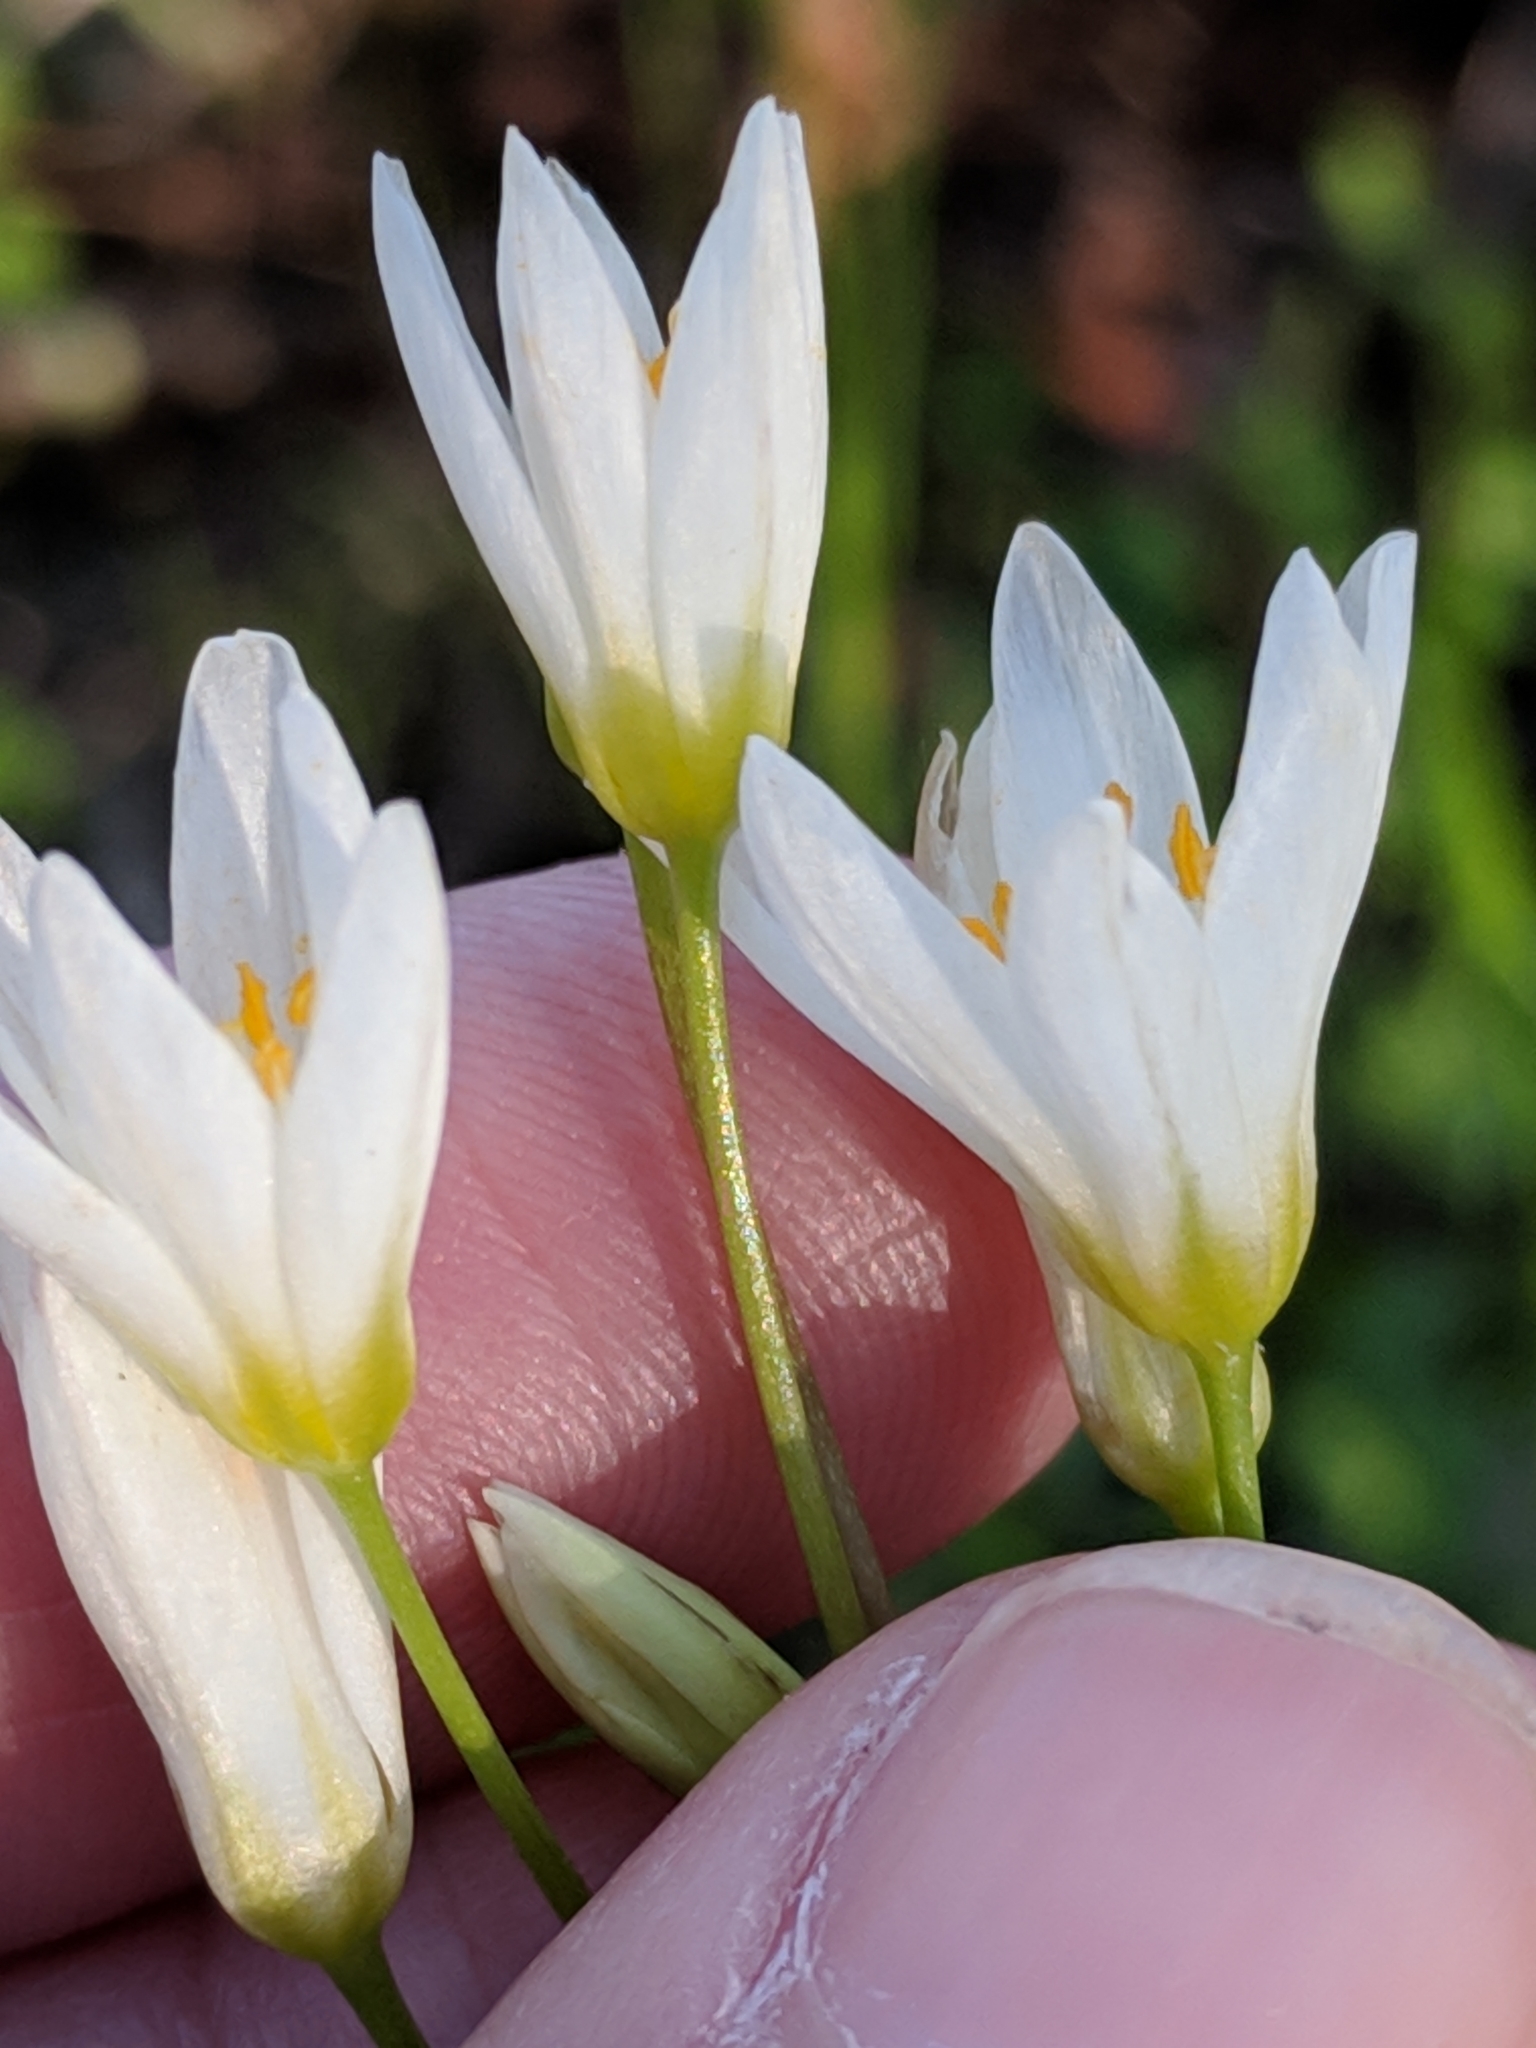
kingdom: Plantae
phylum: Tracheophyta
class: Liliopsida
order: Asparagales
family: Amaryllidaceae
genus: Nothoscordum
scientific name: Nothoscordum bivalve
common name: Crow-poison
